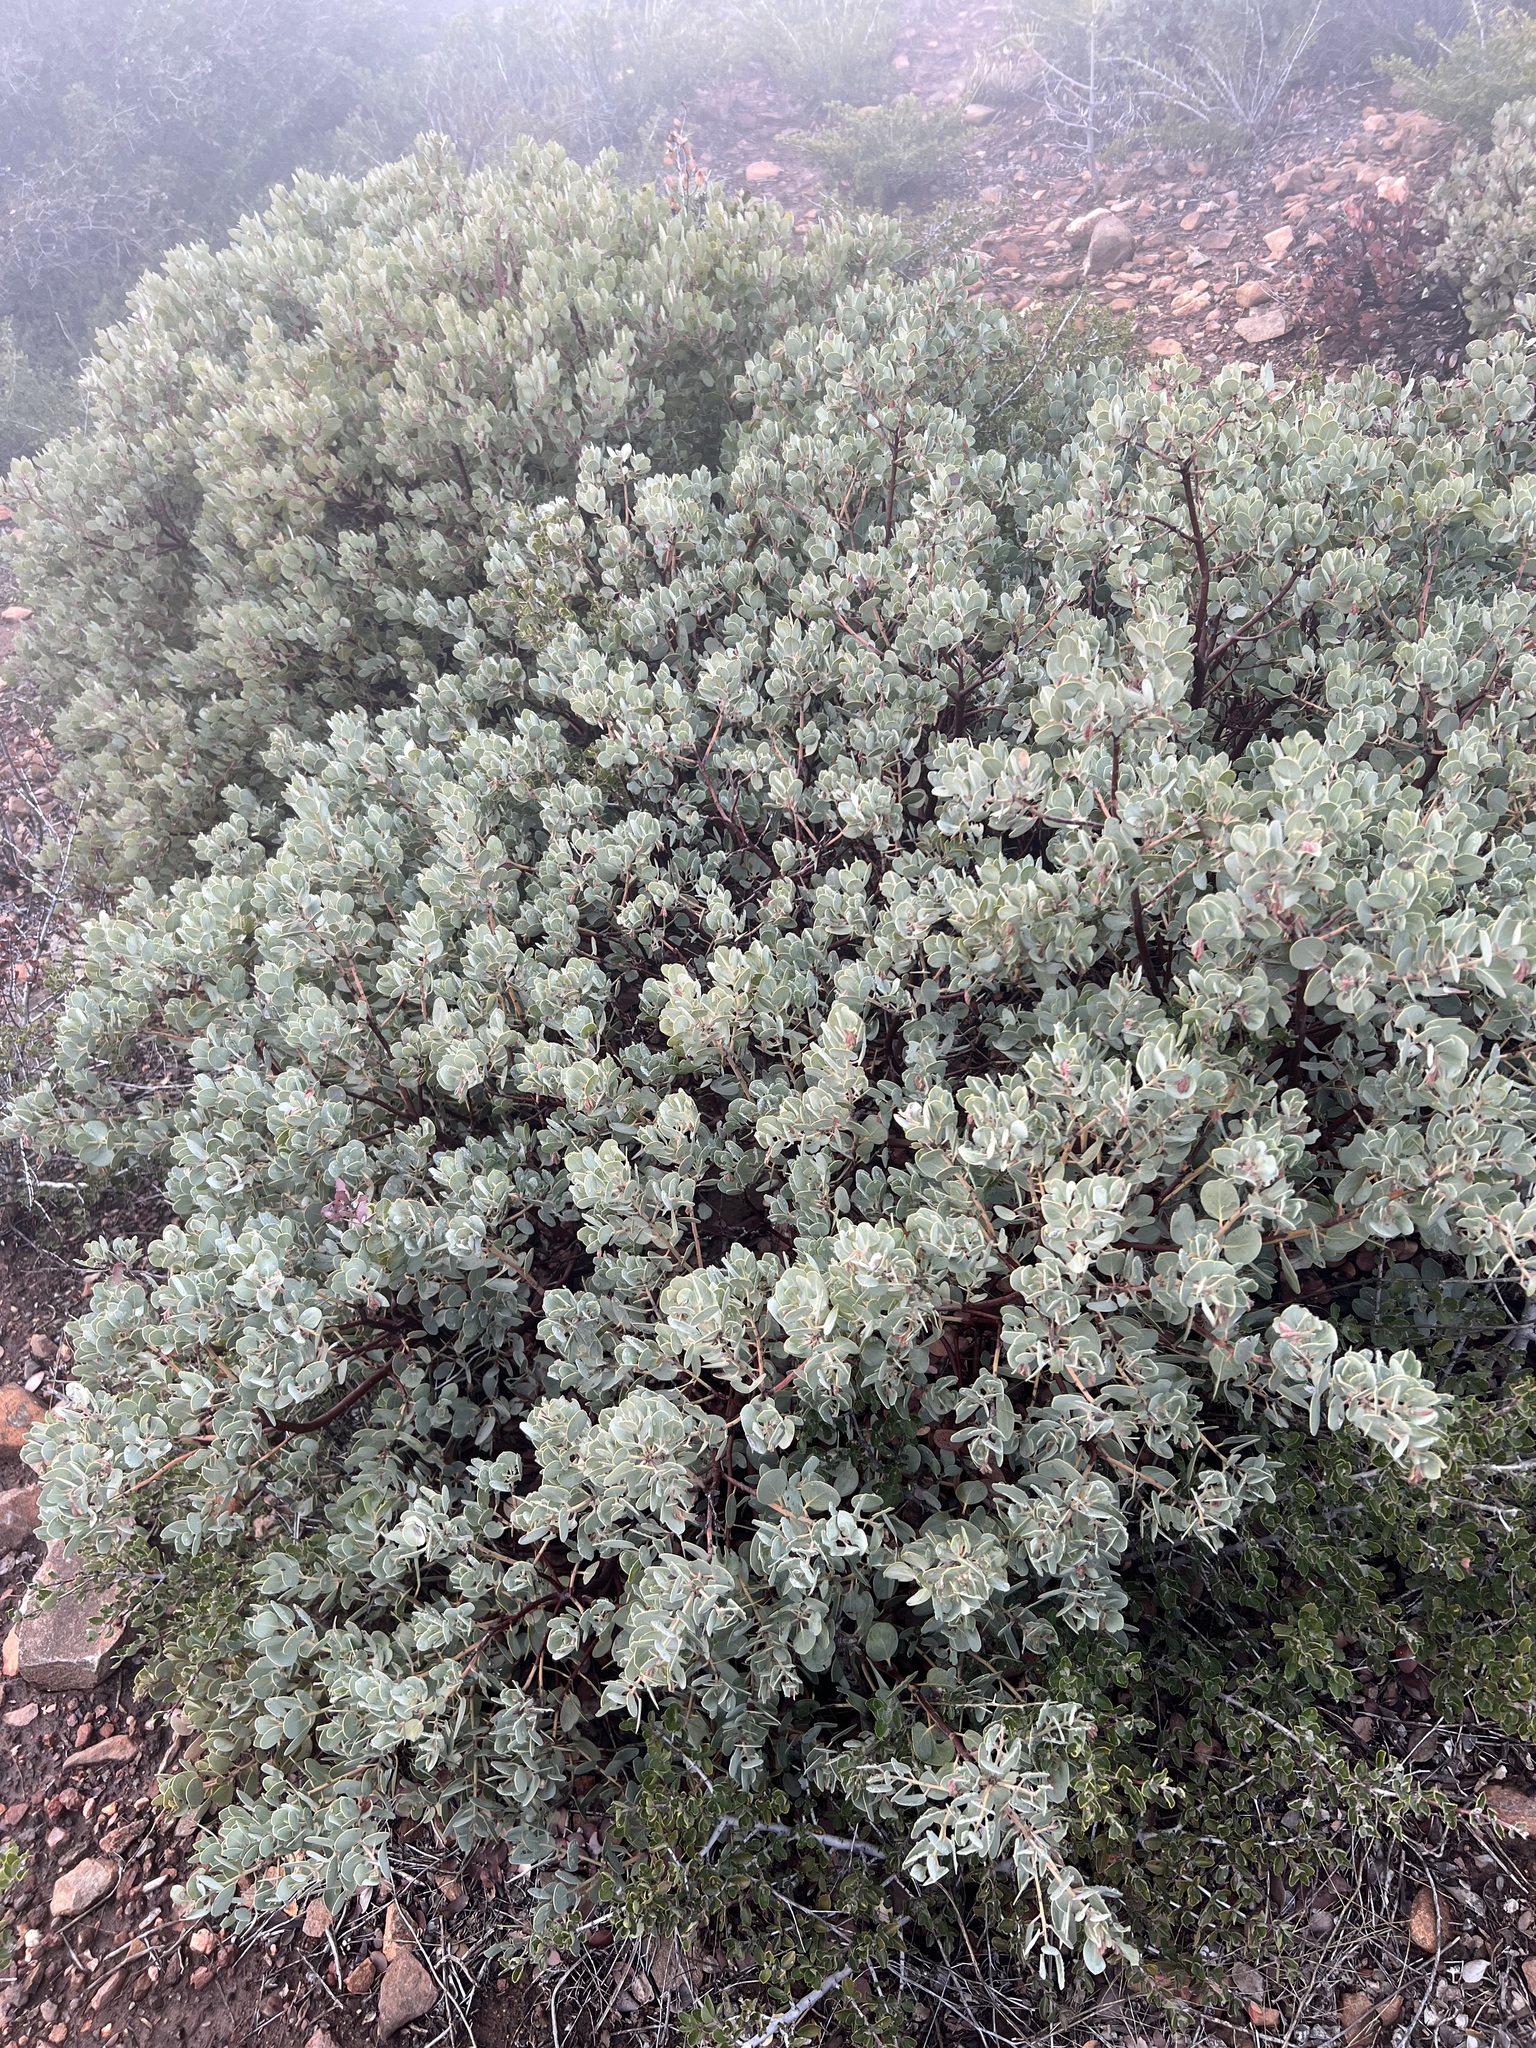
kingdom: Plantae
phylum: Tracheophyta
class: Magnoliopsida
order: Ericales
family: Ericaceae
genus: Arctostaphylos
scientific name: Arctostaphylos glandulosa
